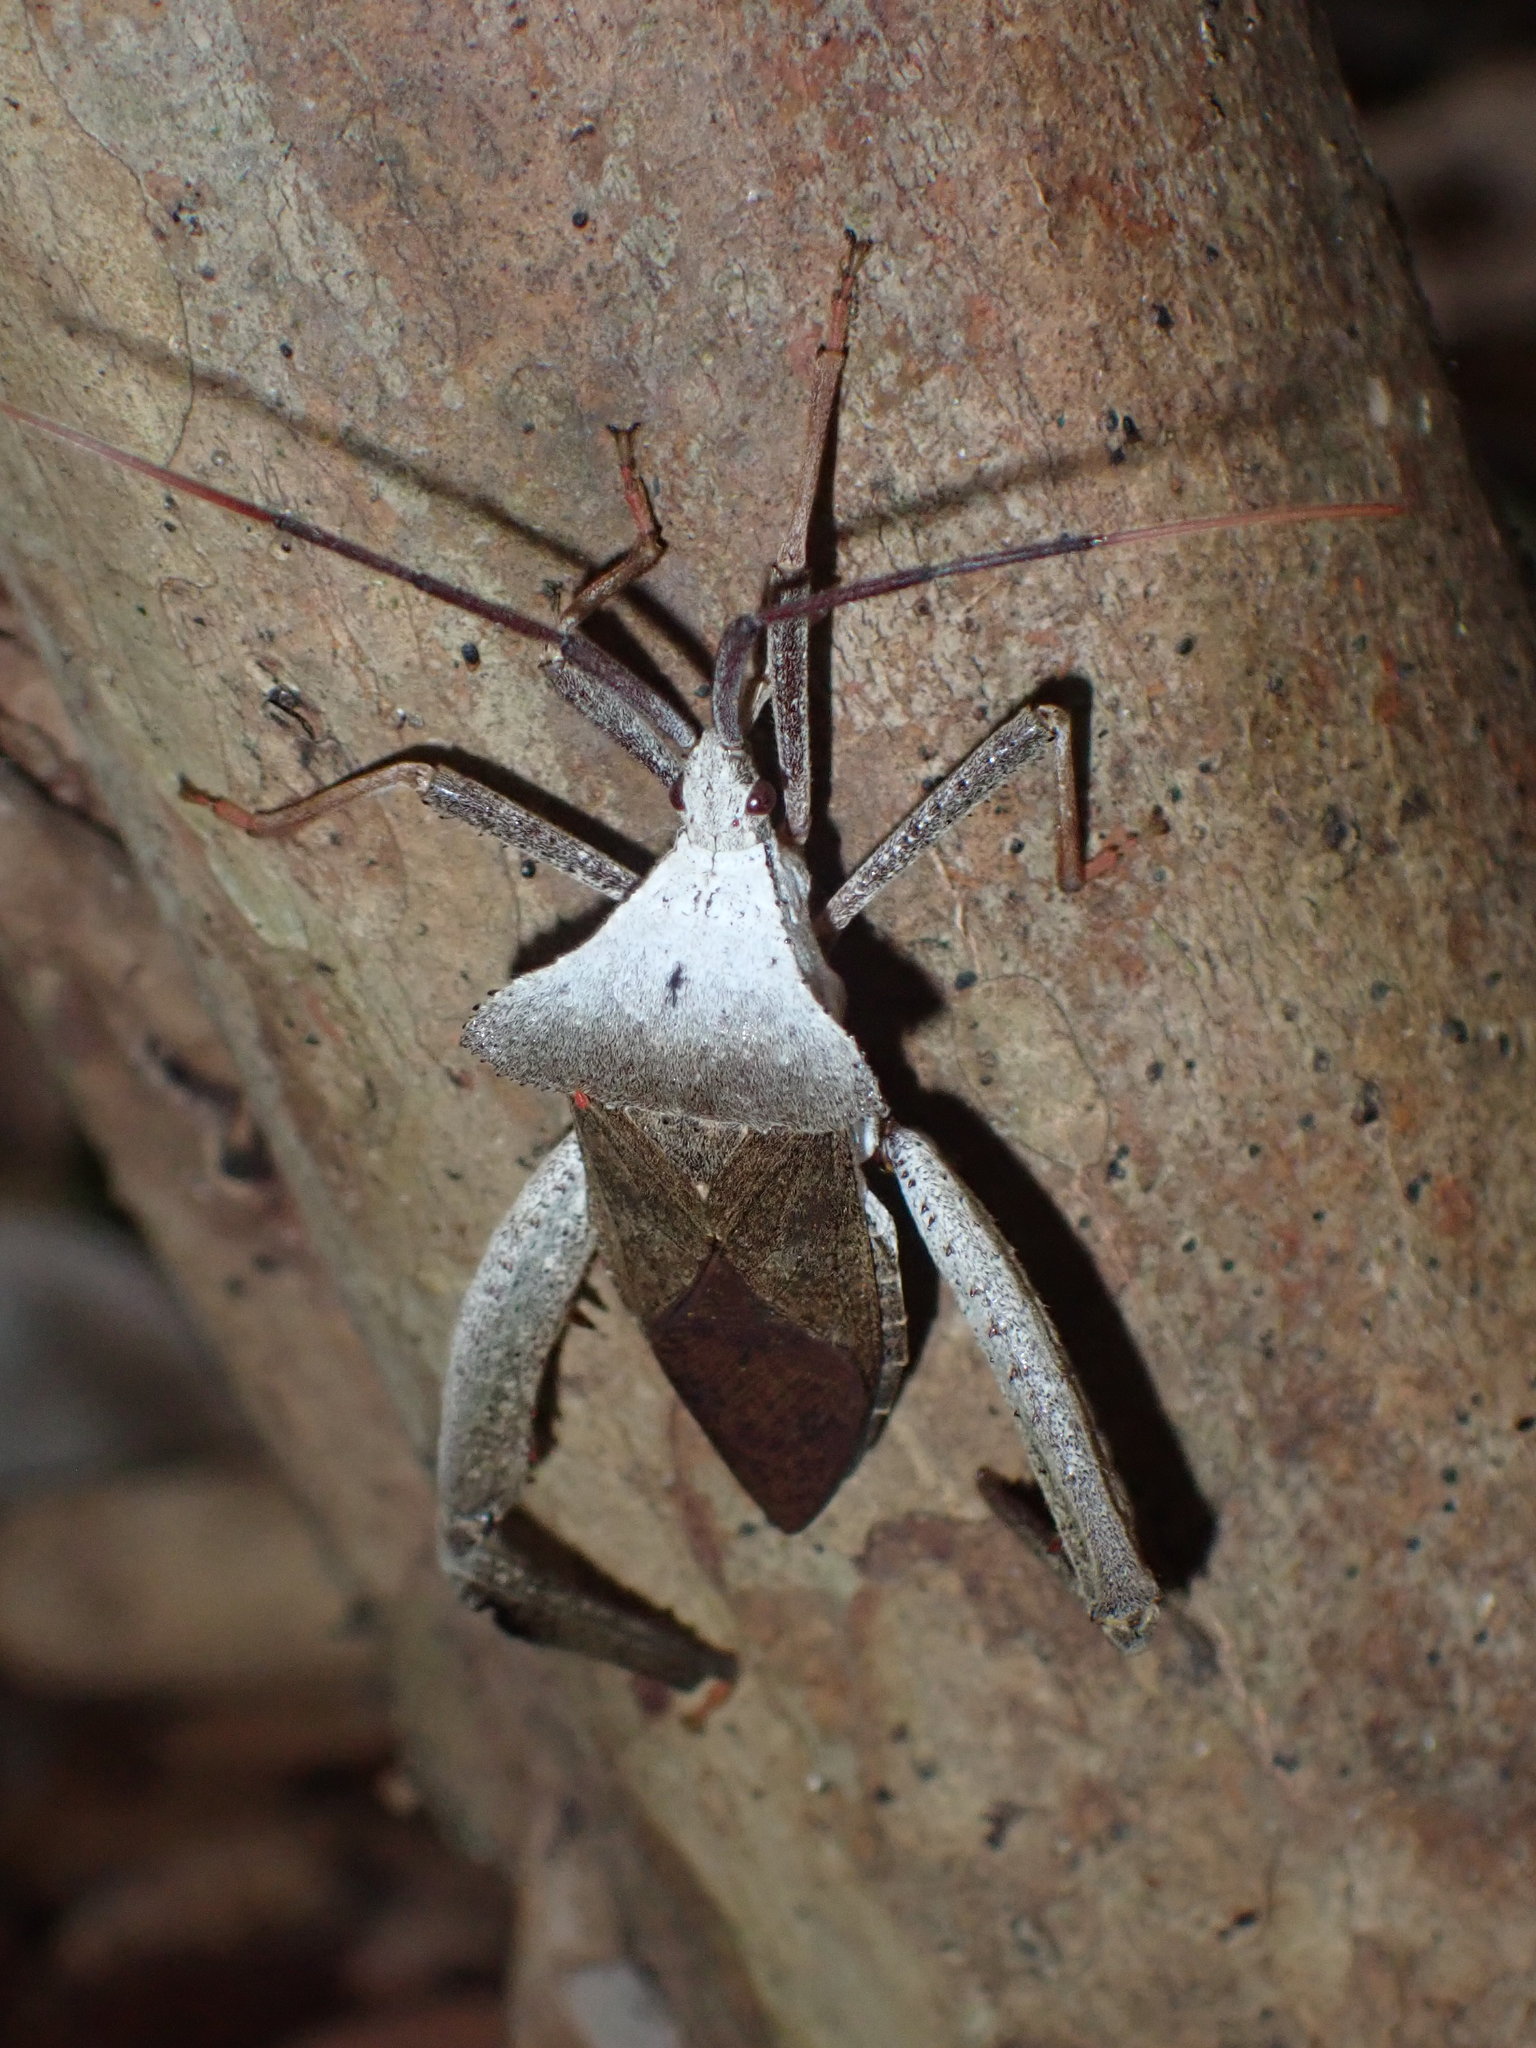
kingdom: Animalia
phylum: Arthropoda
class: Insecta
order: Hemiptera
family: Coreidae
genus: Acanthocephala
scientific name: Acanthocephala alata
